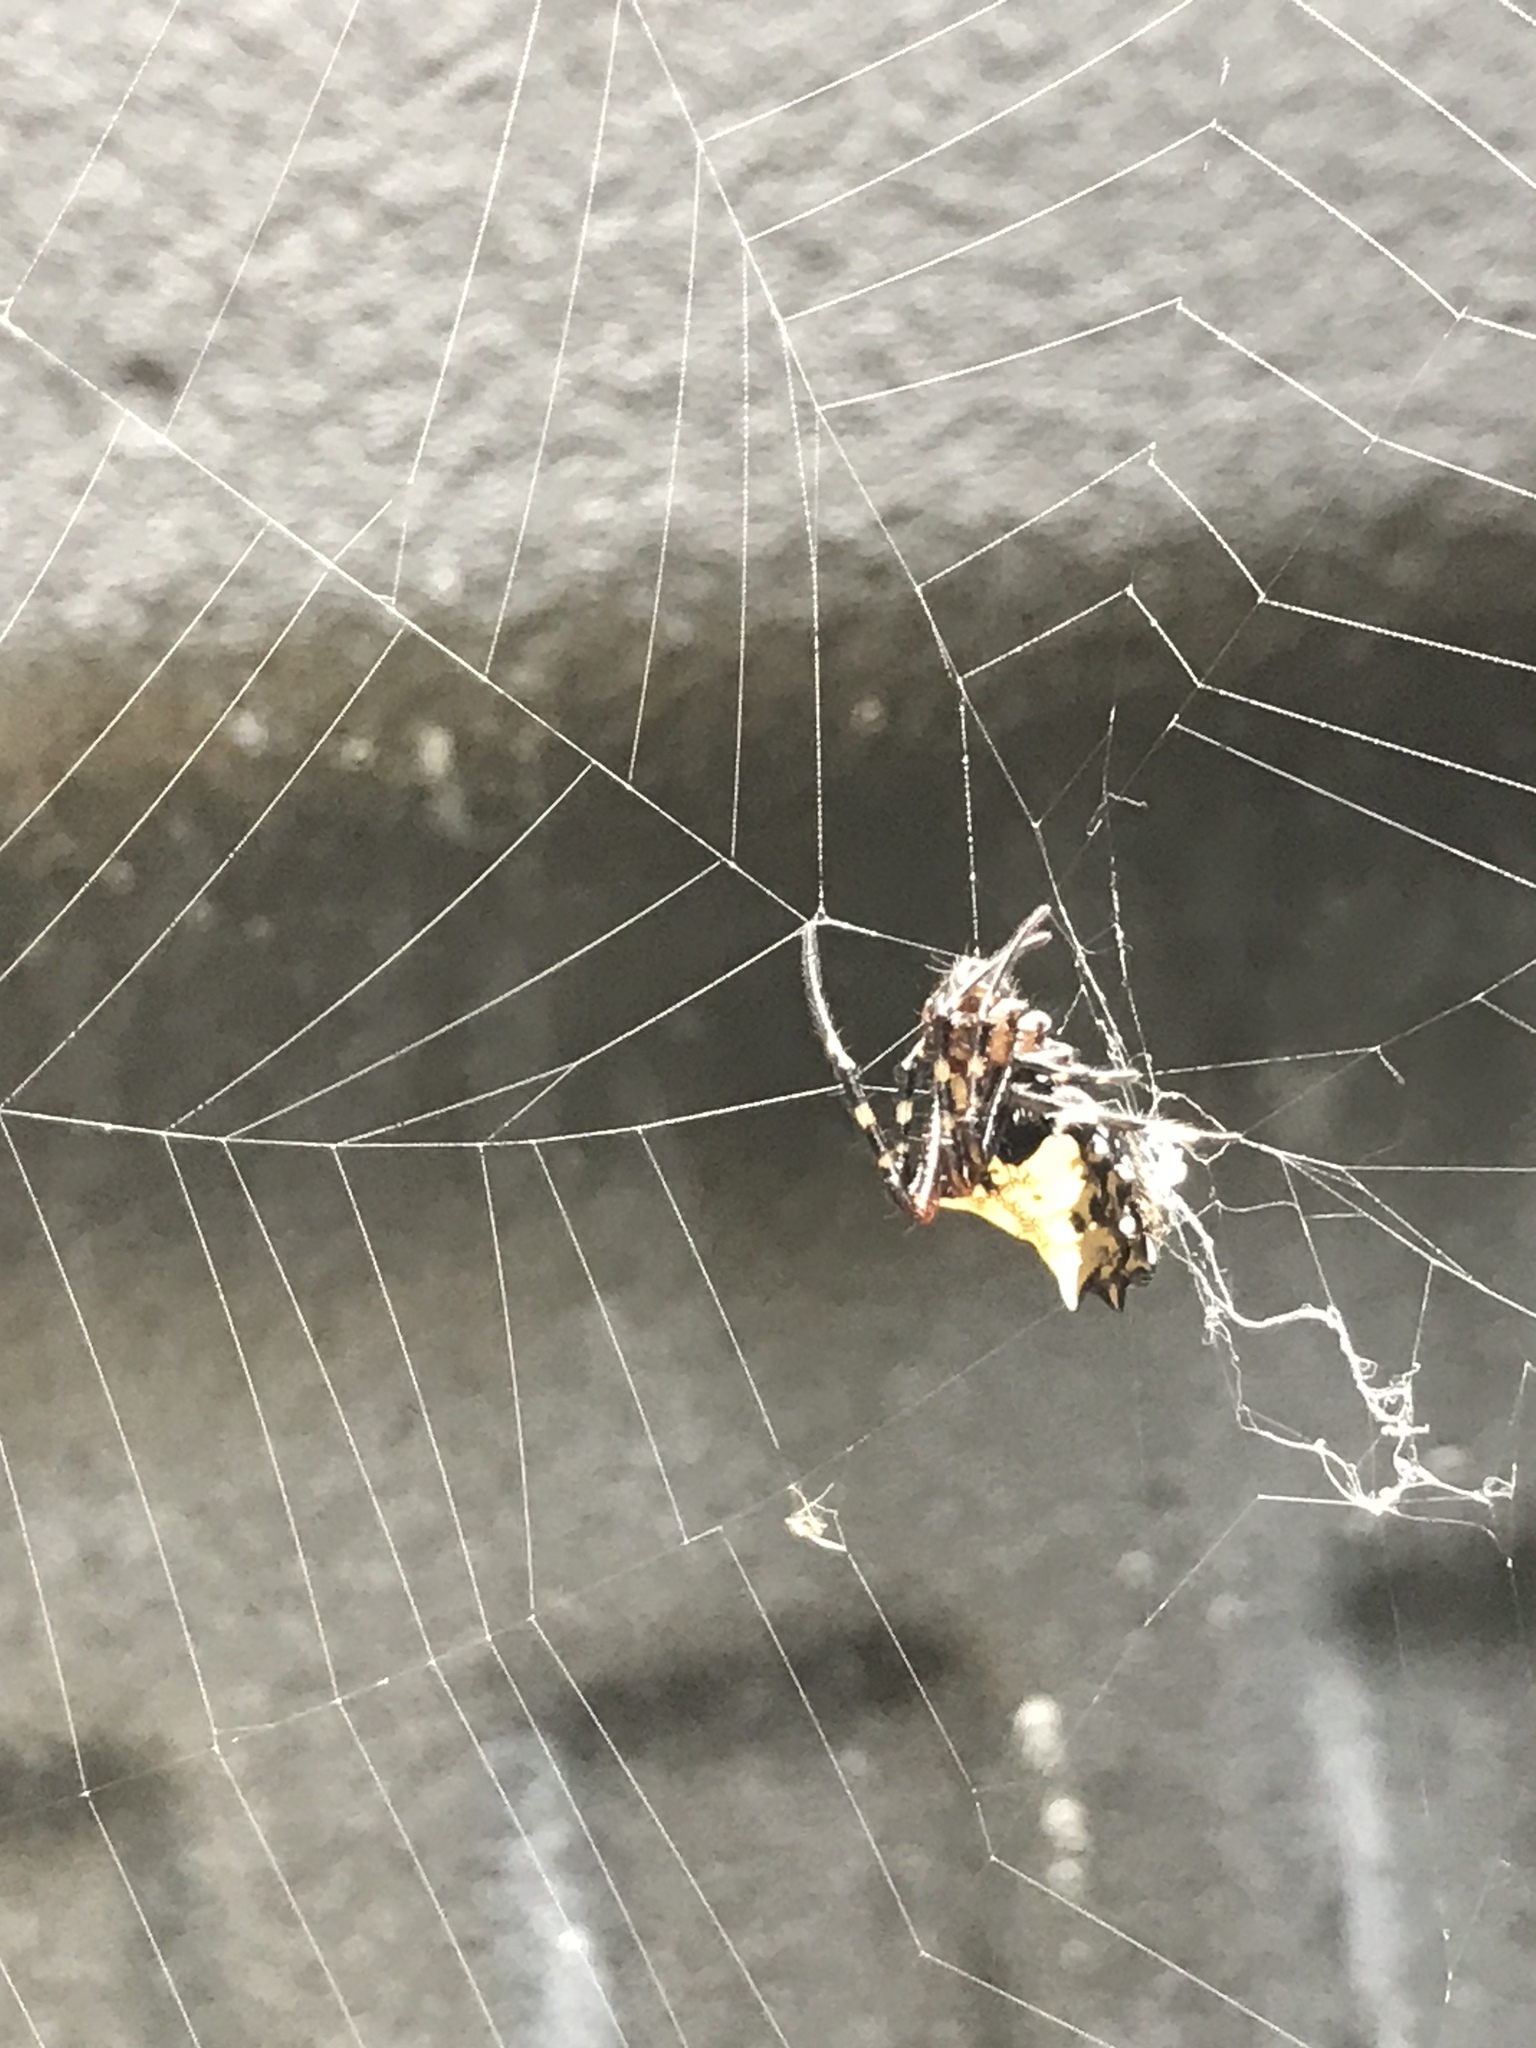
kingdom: Animalia
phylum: Arthropoda
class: Arachnida
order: Araneae
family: Araneidae
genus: Verrucosa
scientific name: Verrucosa arenata
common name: Orb weavers
